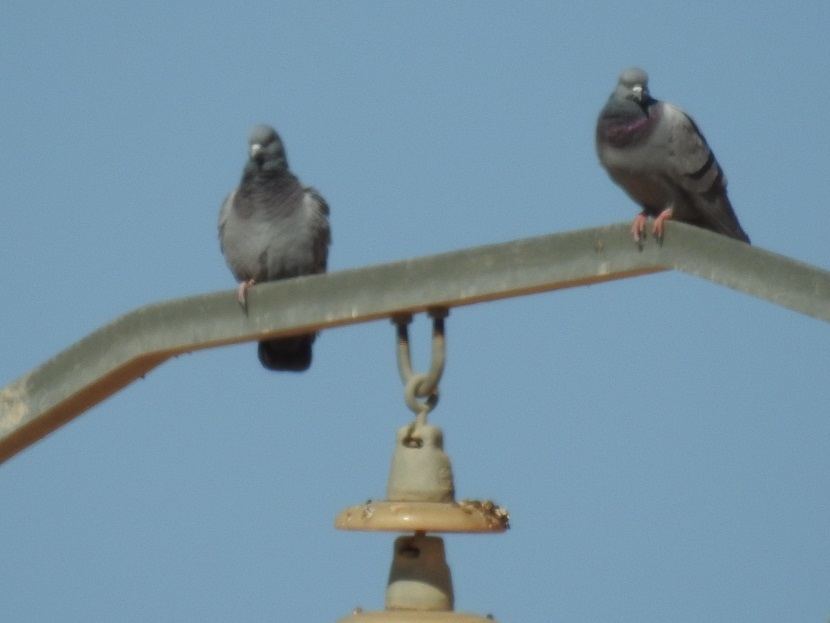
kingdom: Animalia
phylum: Chordata
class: Aves
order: Columbiformes
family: Columbidae
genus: Columba
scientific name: Columba livia
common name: Rock pigeon
